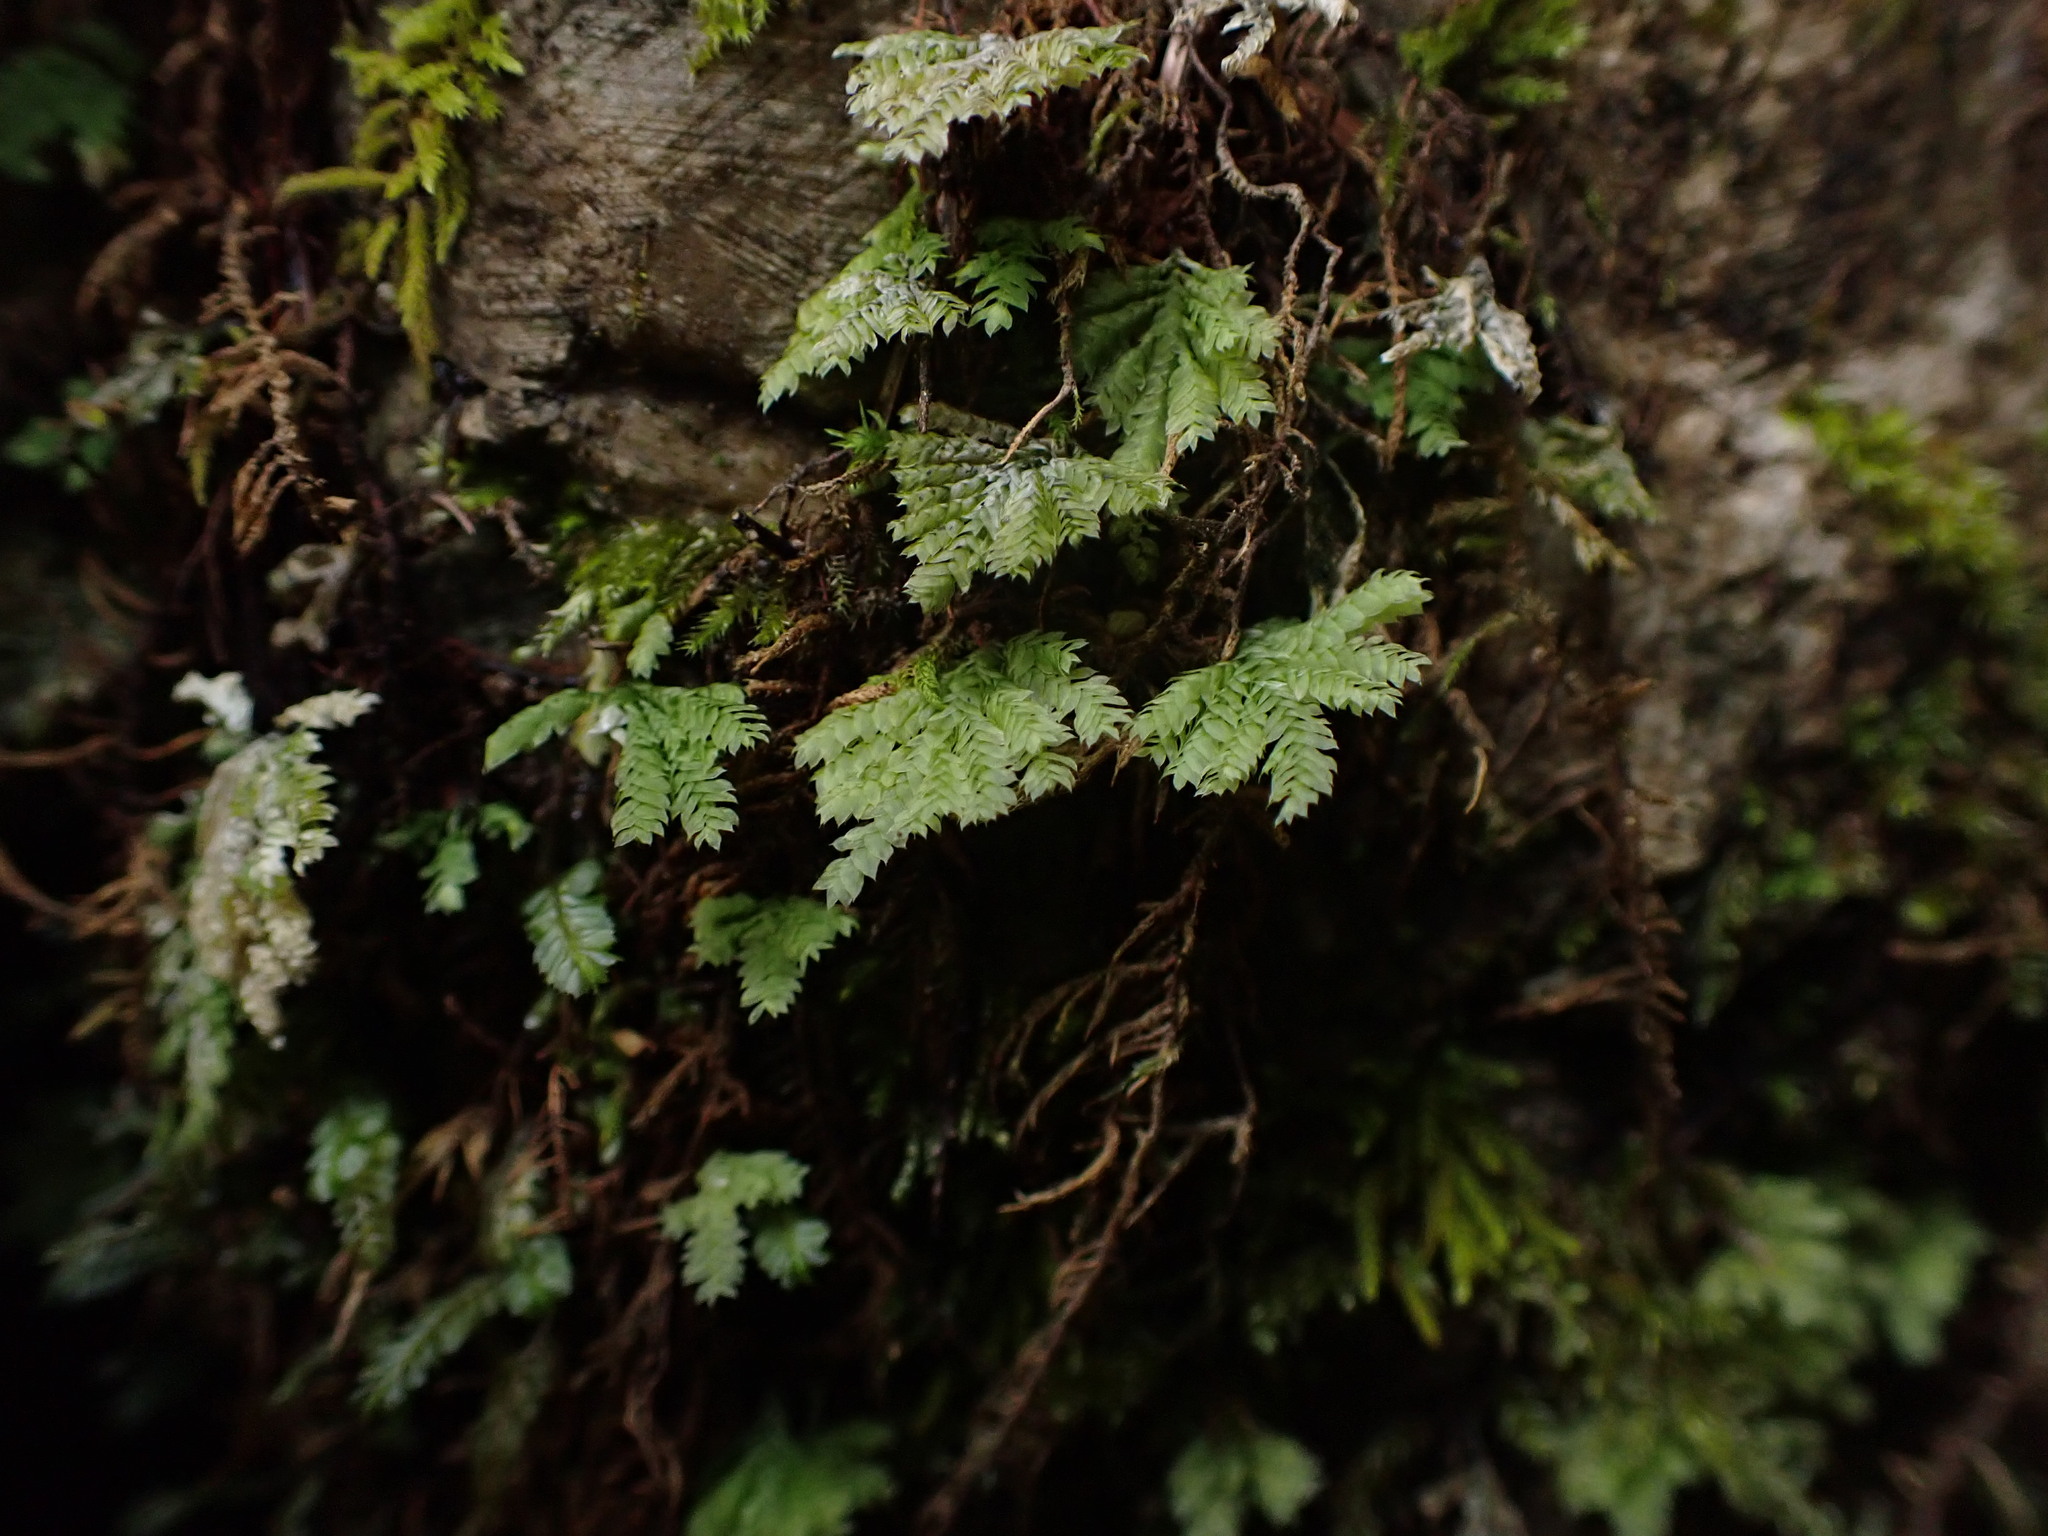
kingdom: Plantae
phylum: Bryophyta
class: Bryopsida
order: Hypopterygiales
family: Hypopterygiaceae
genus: Hypopterygium
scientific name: Hypopterygium flavolimbatum
